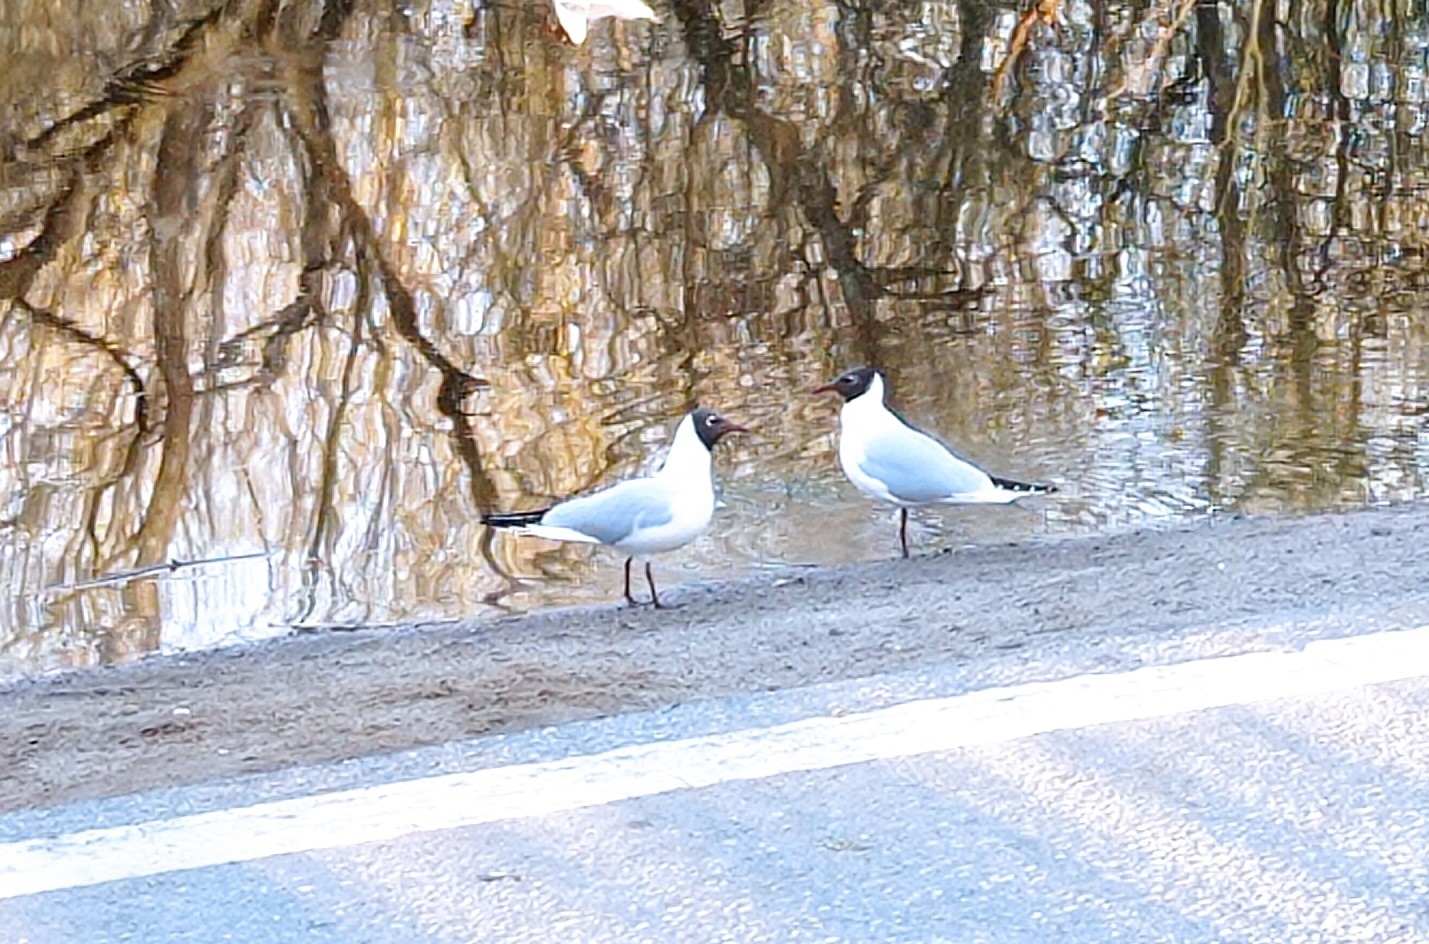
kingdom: Animalia
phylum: Chordata
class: Aves
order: Charadriiformes
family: Laridae
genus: Chroicocephalus
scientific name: Chroicocephalus ridibundus
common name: Black-headed gull
